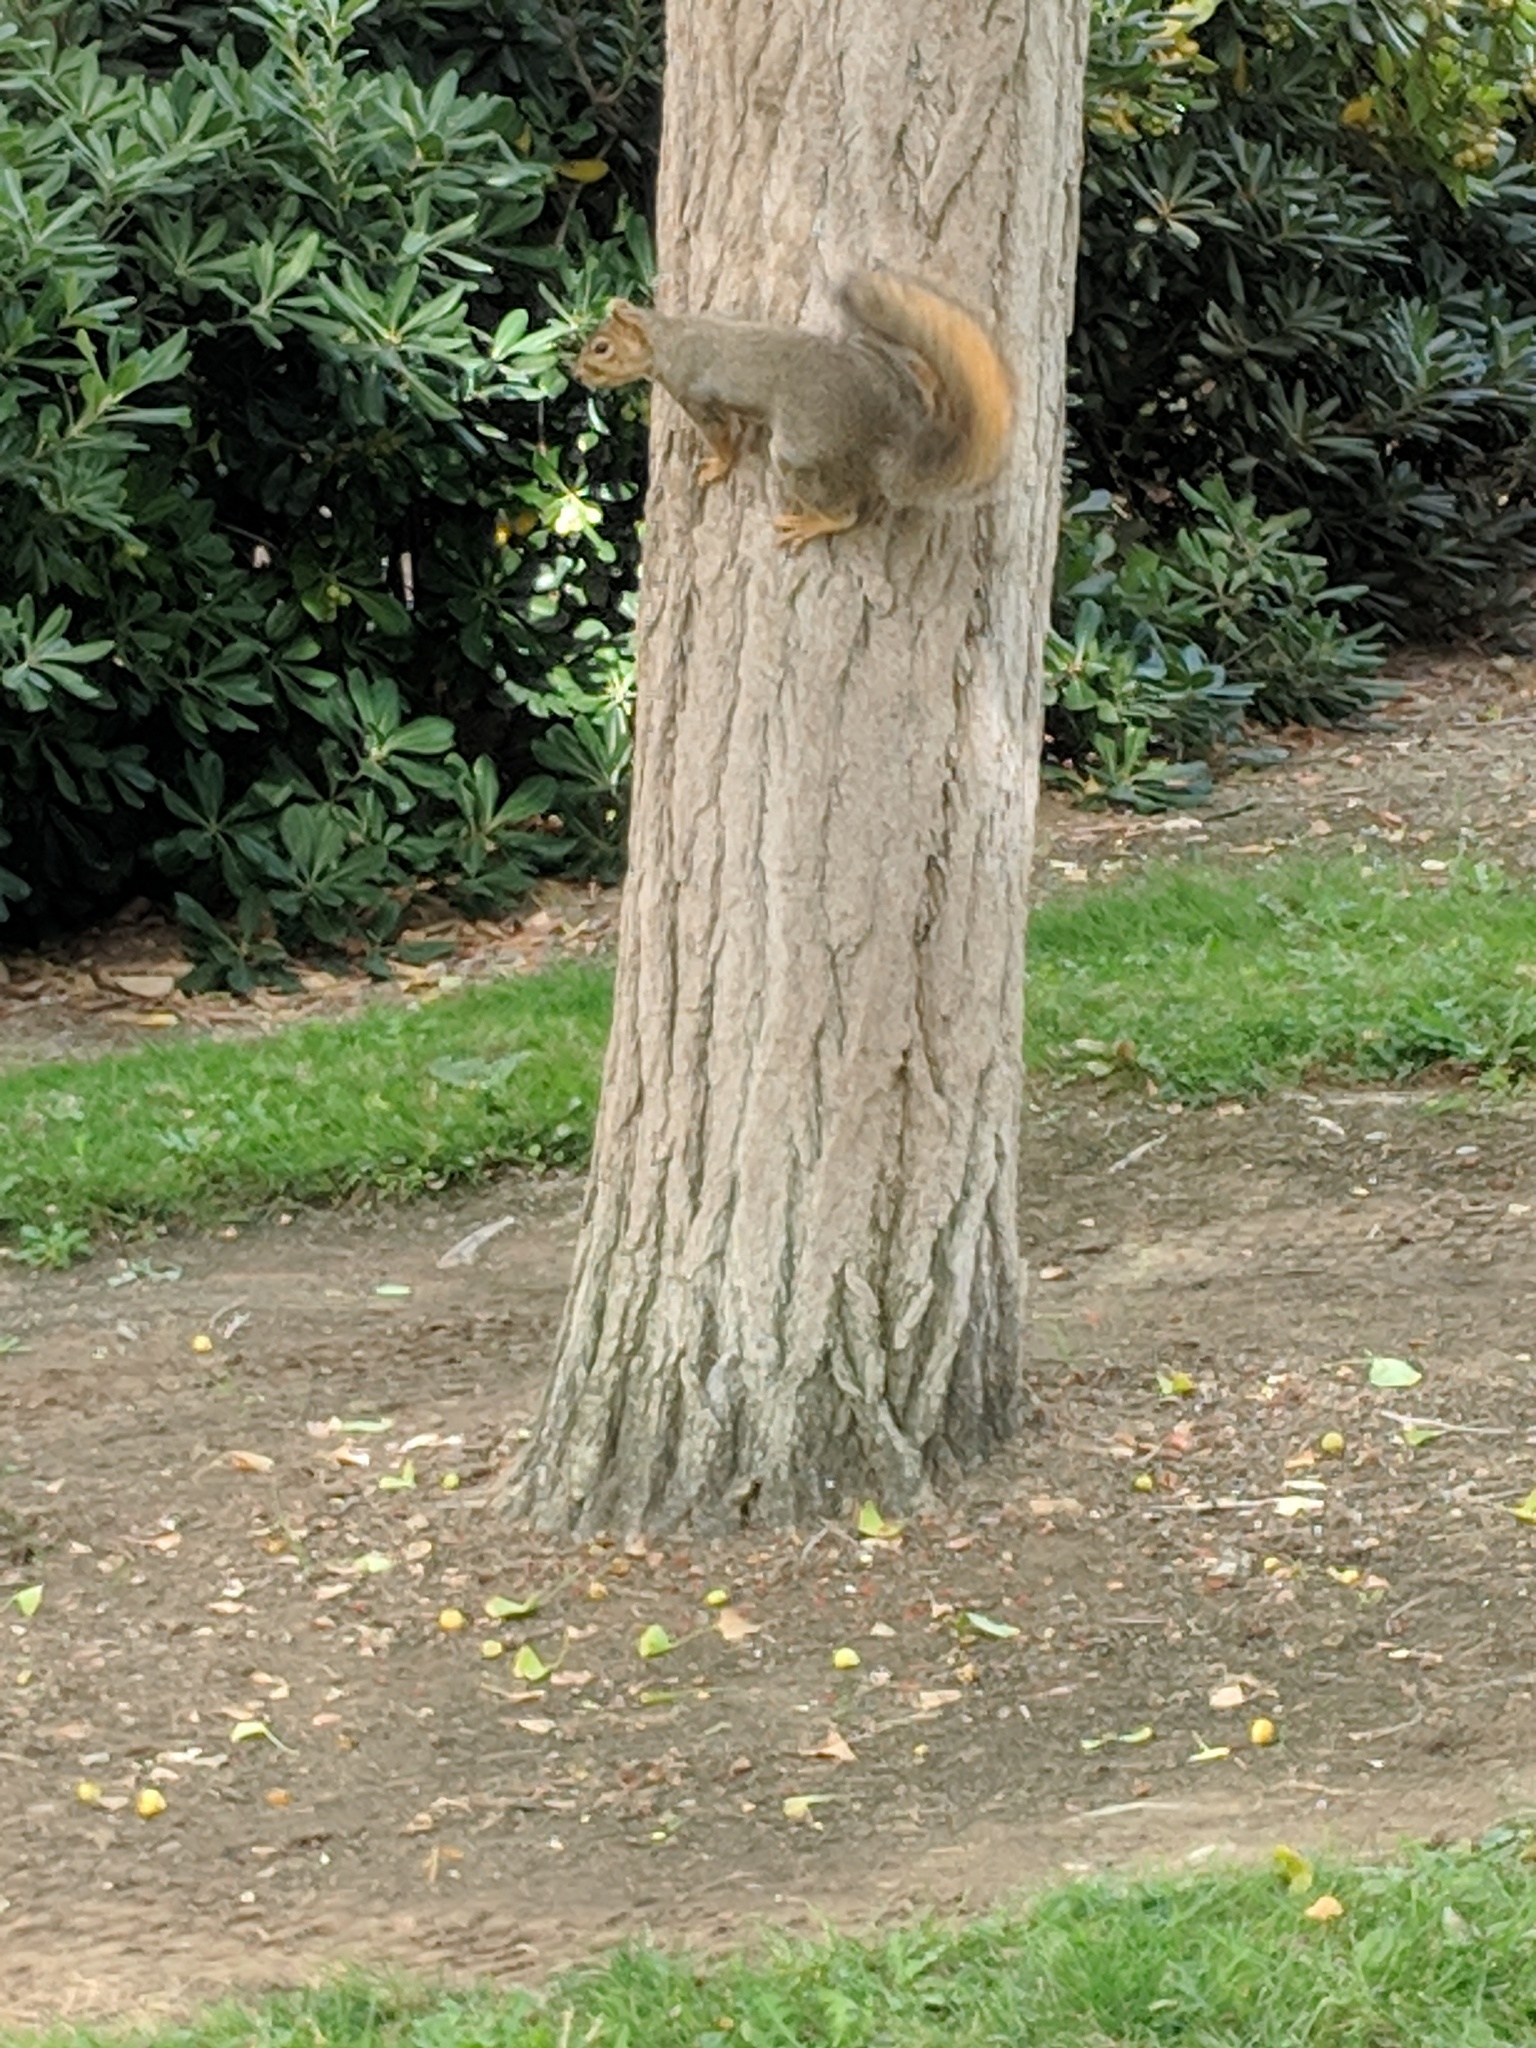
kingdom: Animalia
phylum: Chordata
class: Mammalia
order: Rodentia
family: Sciuridae
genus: Sciurus
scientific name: Sciurus niger
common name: Fox squirrel
